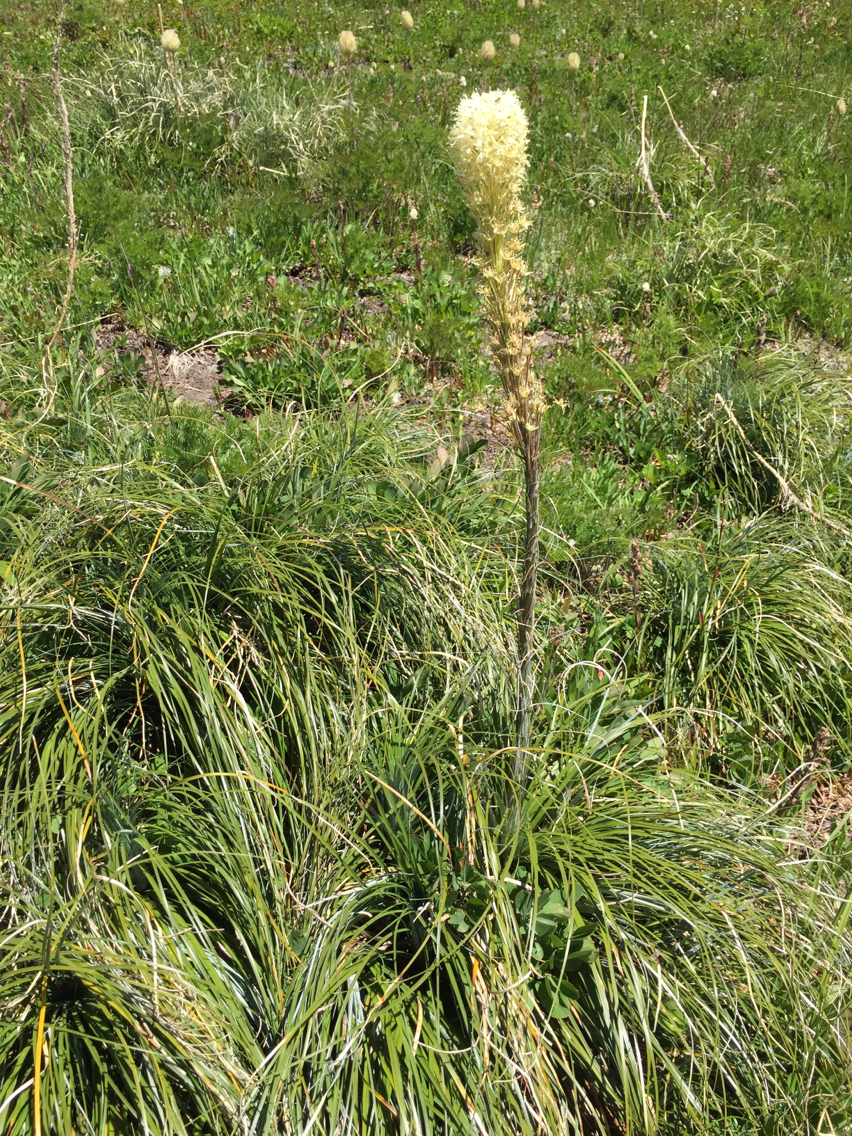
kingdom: Plantae
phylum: Tracheophyta
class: Liliopsida
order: Liliales
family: Melanthiaceae
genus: Xerophyllum
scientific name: Xerophyllum tenax
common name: Bear-grass
